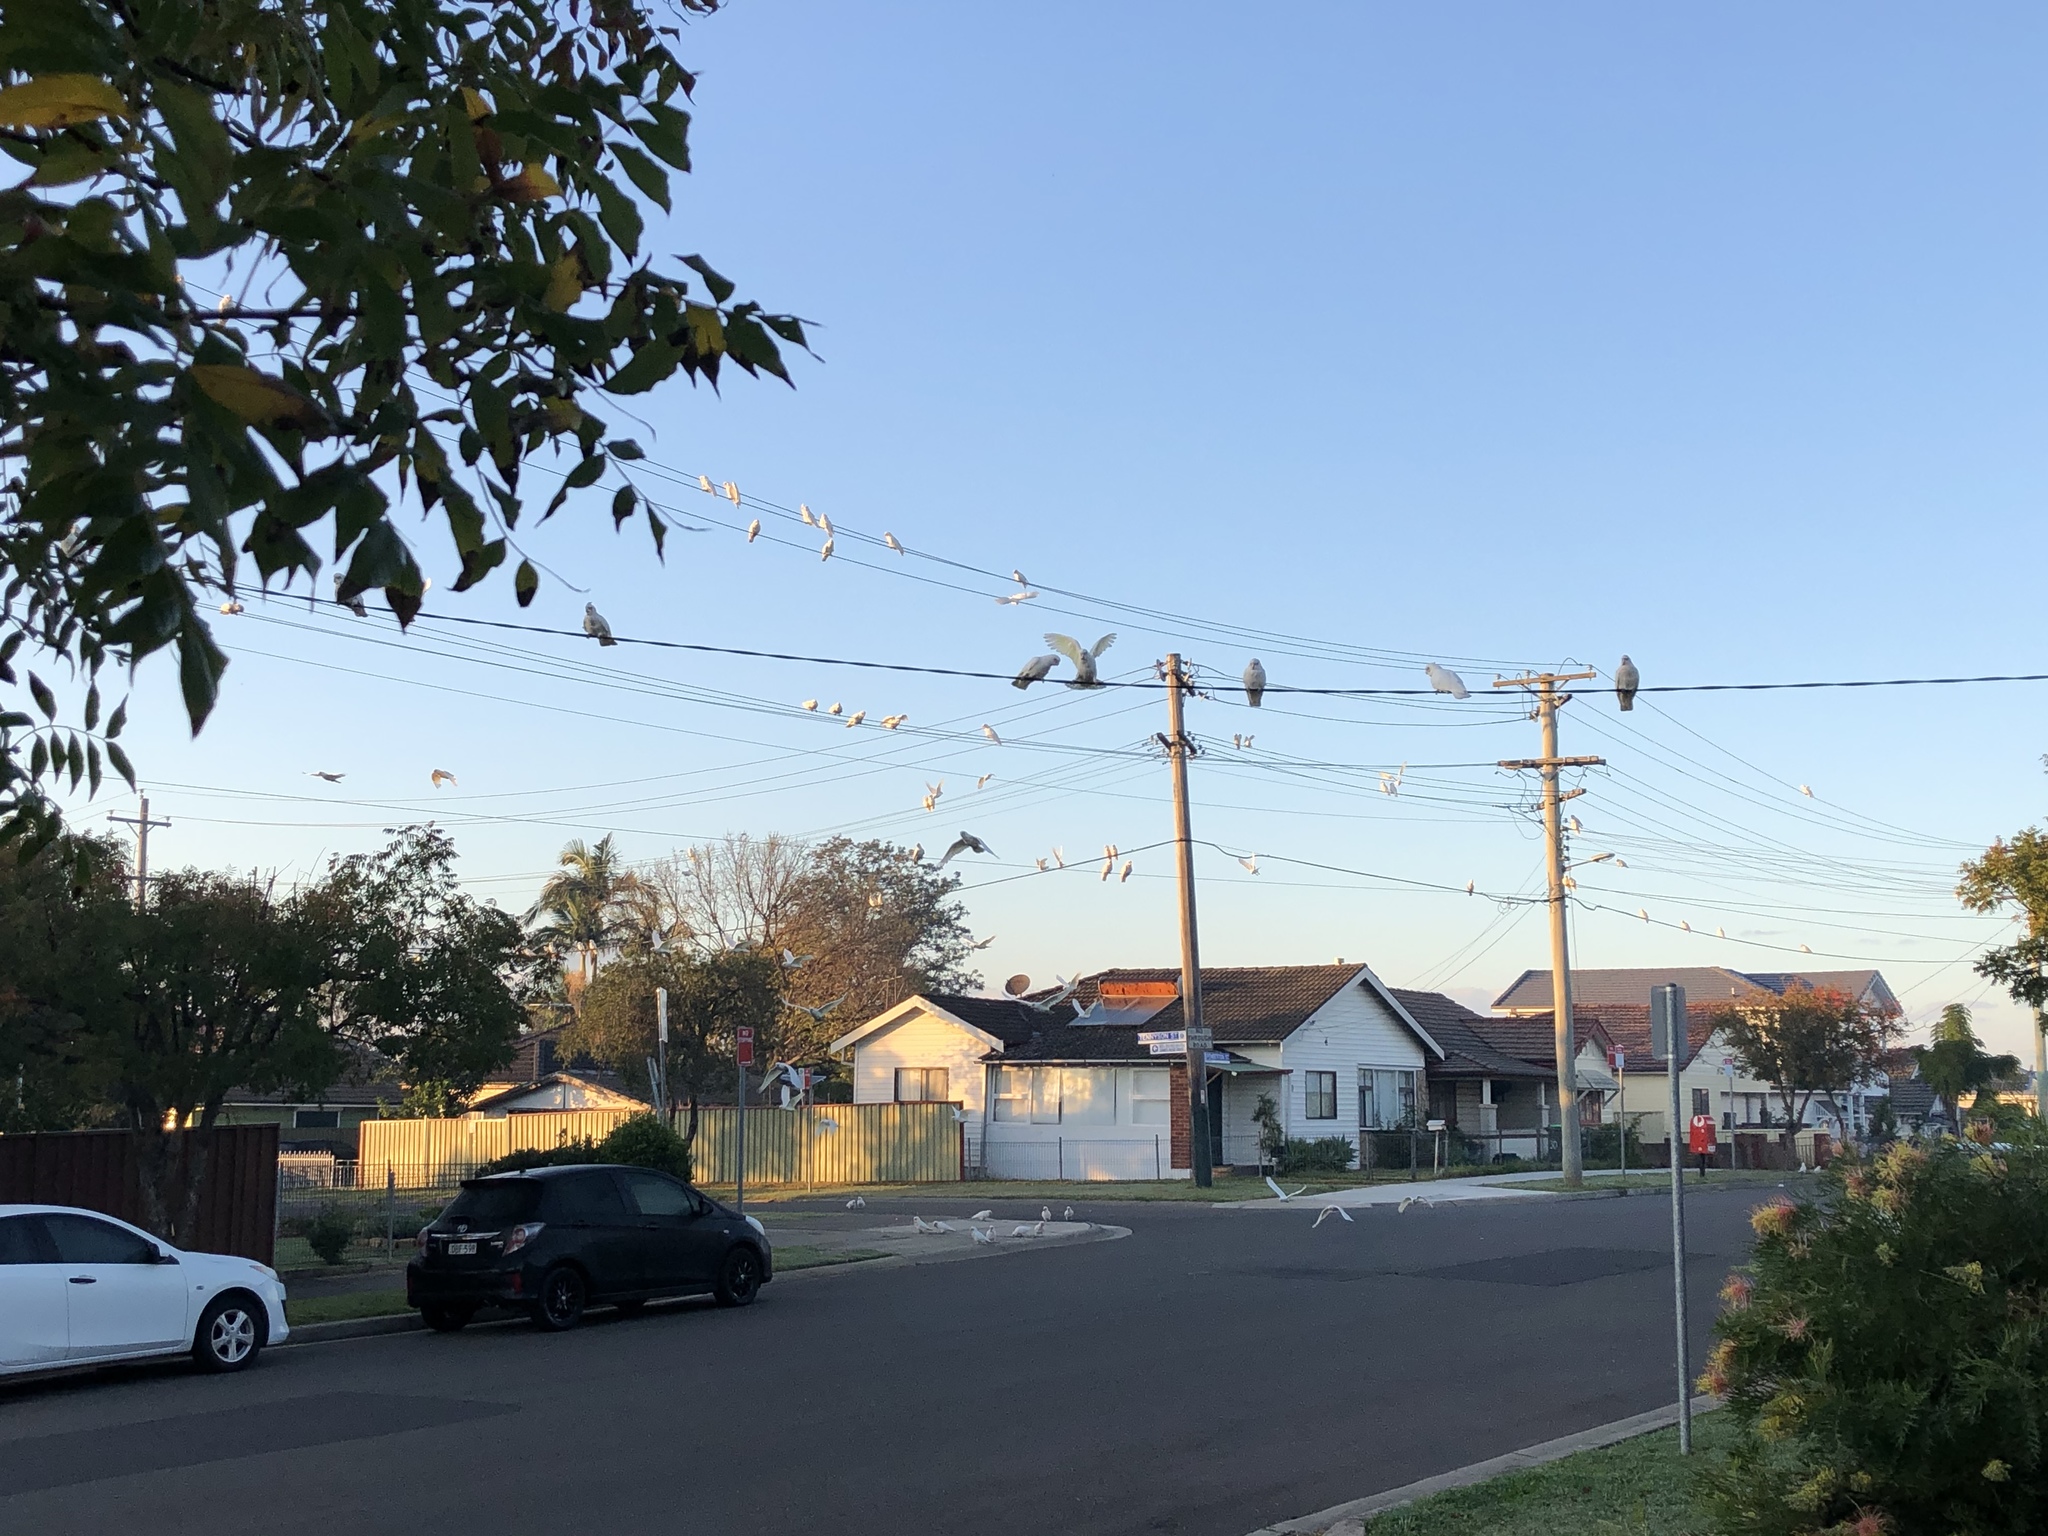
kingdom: Animalia
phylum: Chordata
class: Aves
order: Psittaciformes
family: Psittacidae
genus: Cacatua
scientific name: Cacatua sanguinea
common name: Little corella
